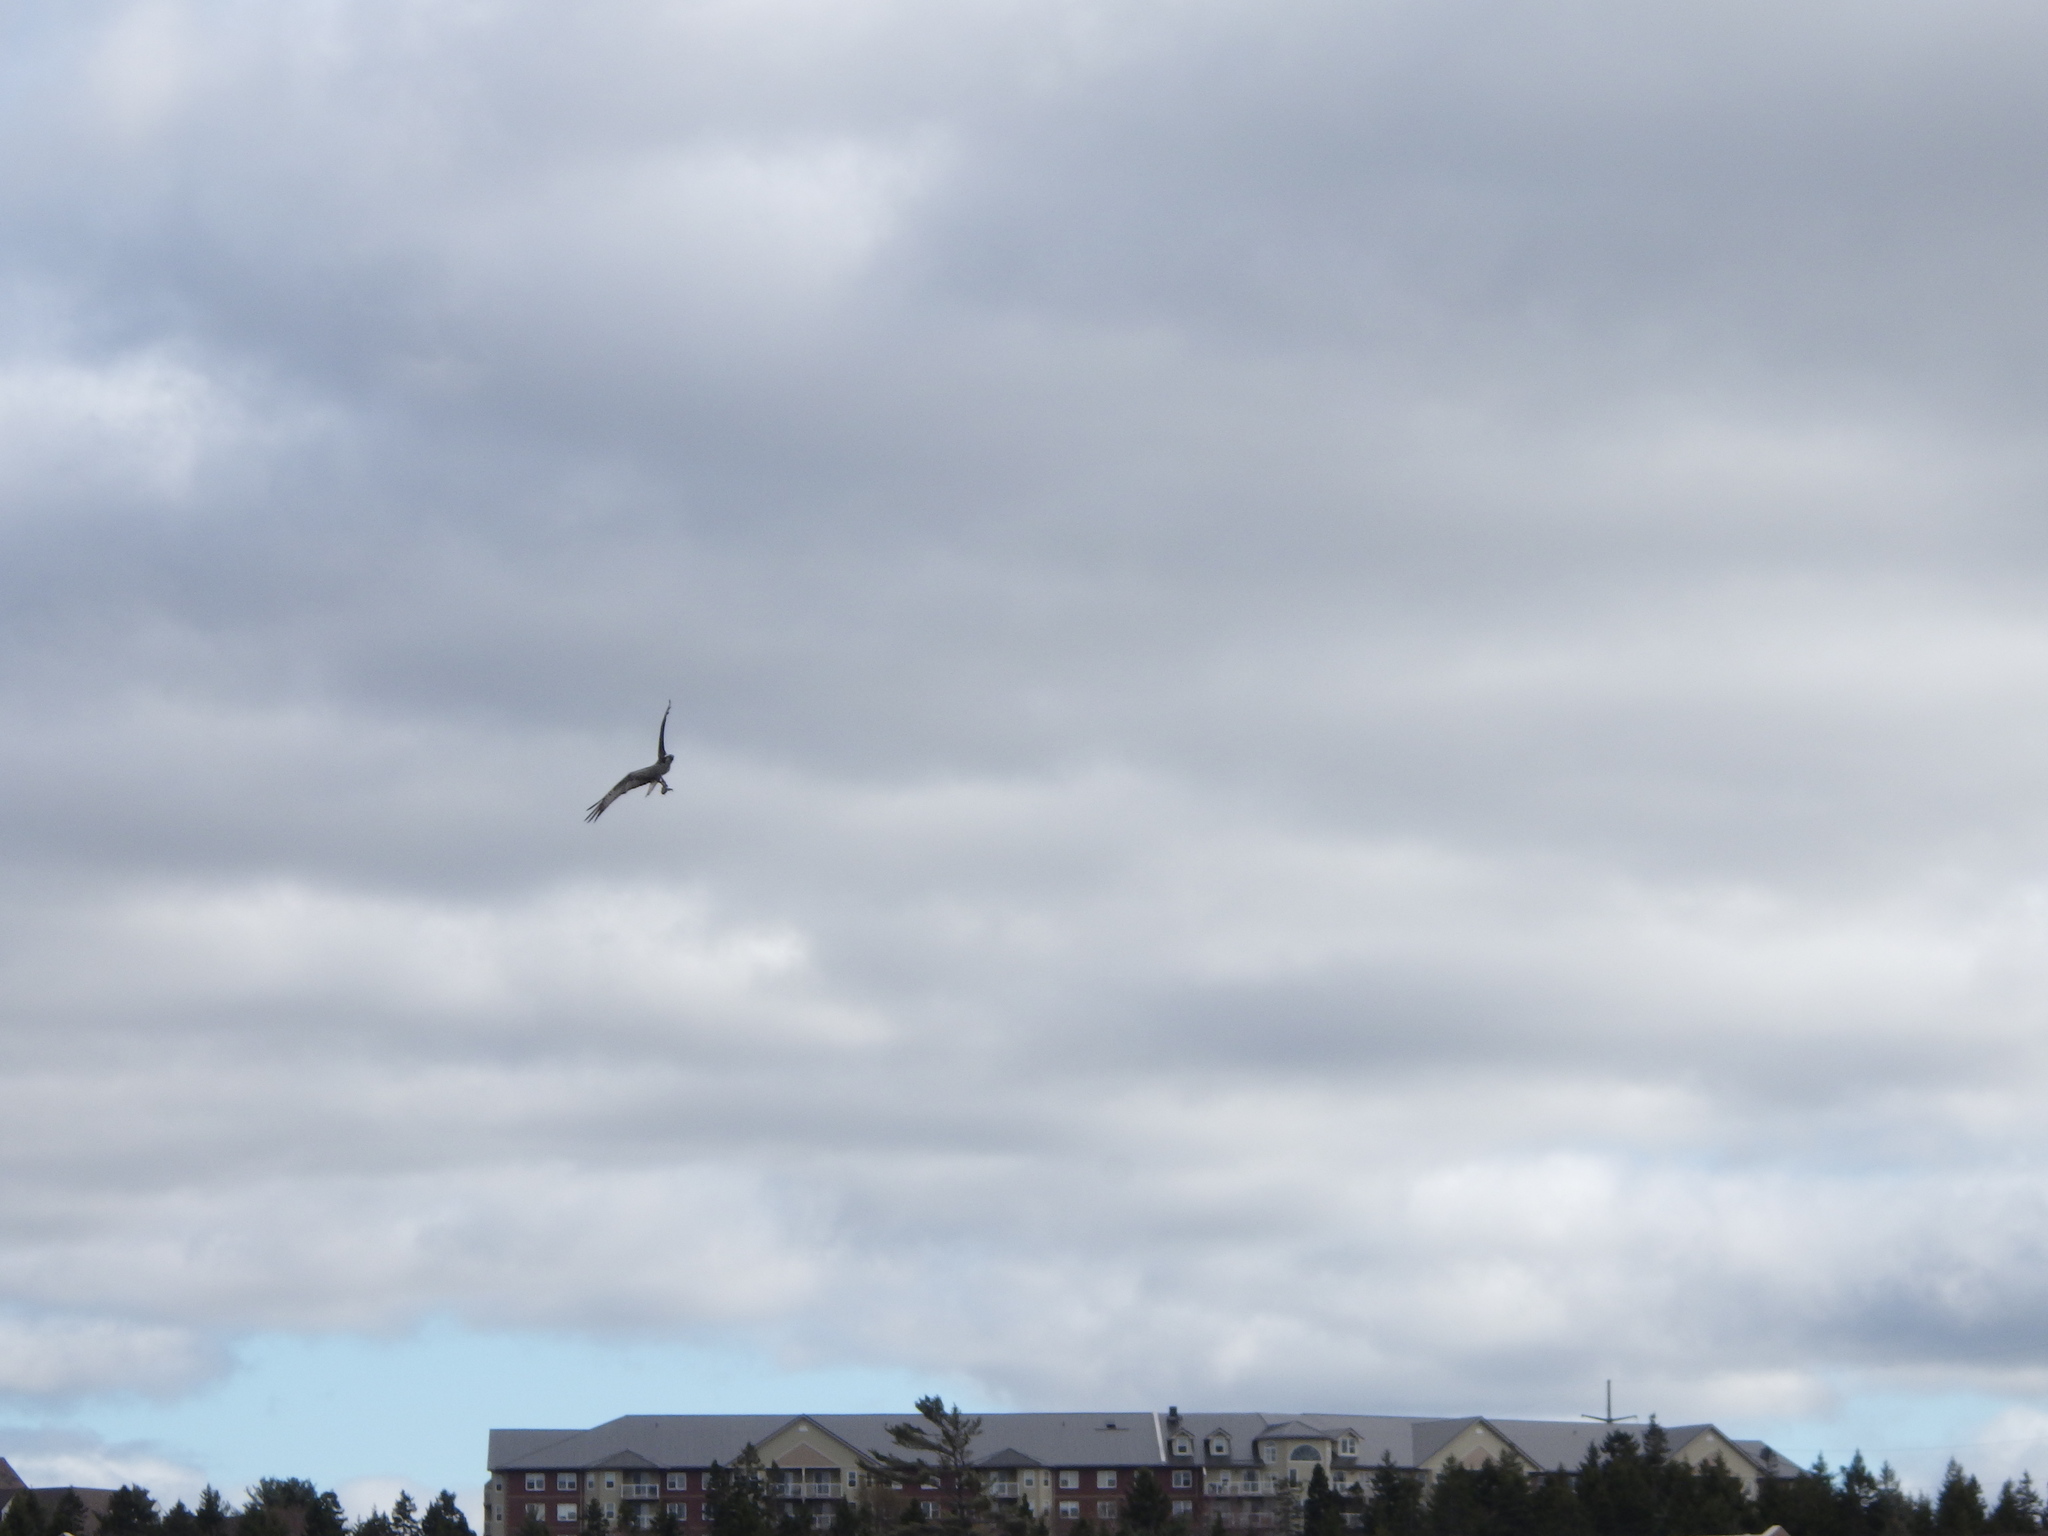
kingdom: Animalia
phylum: Chordata
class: Aves
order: Accipitriformes
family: Pandionidae
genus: Pandion
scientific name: Pandion haliaetus
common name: Osprey
